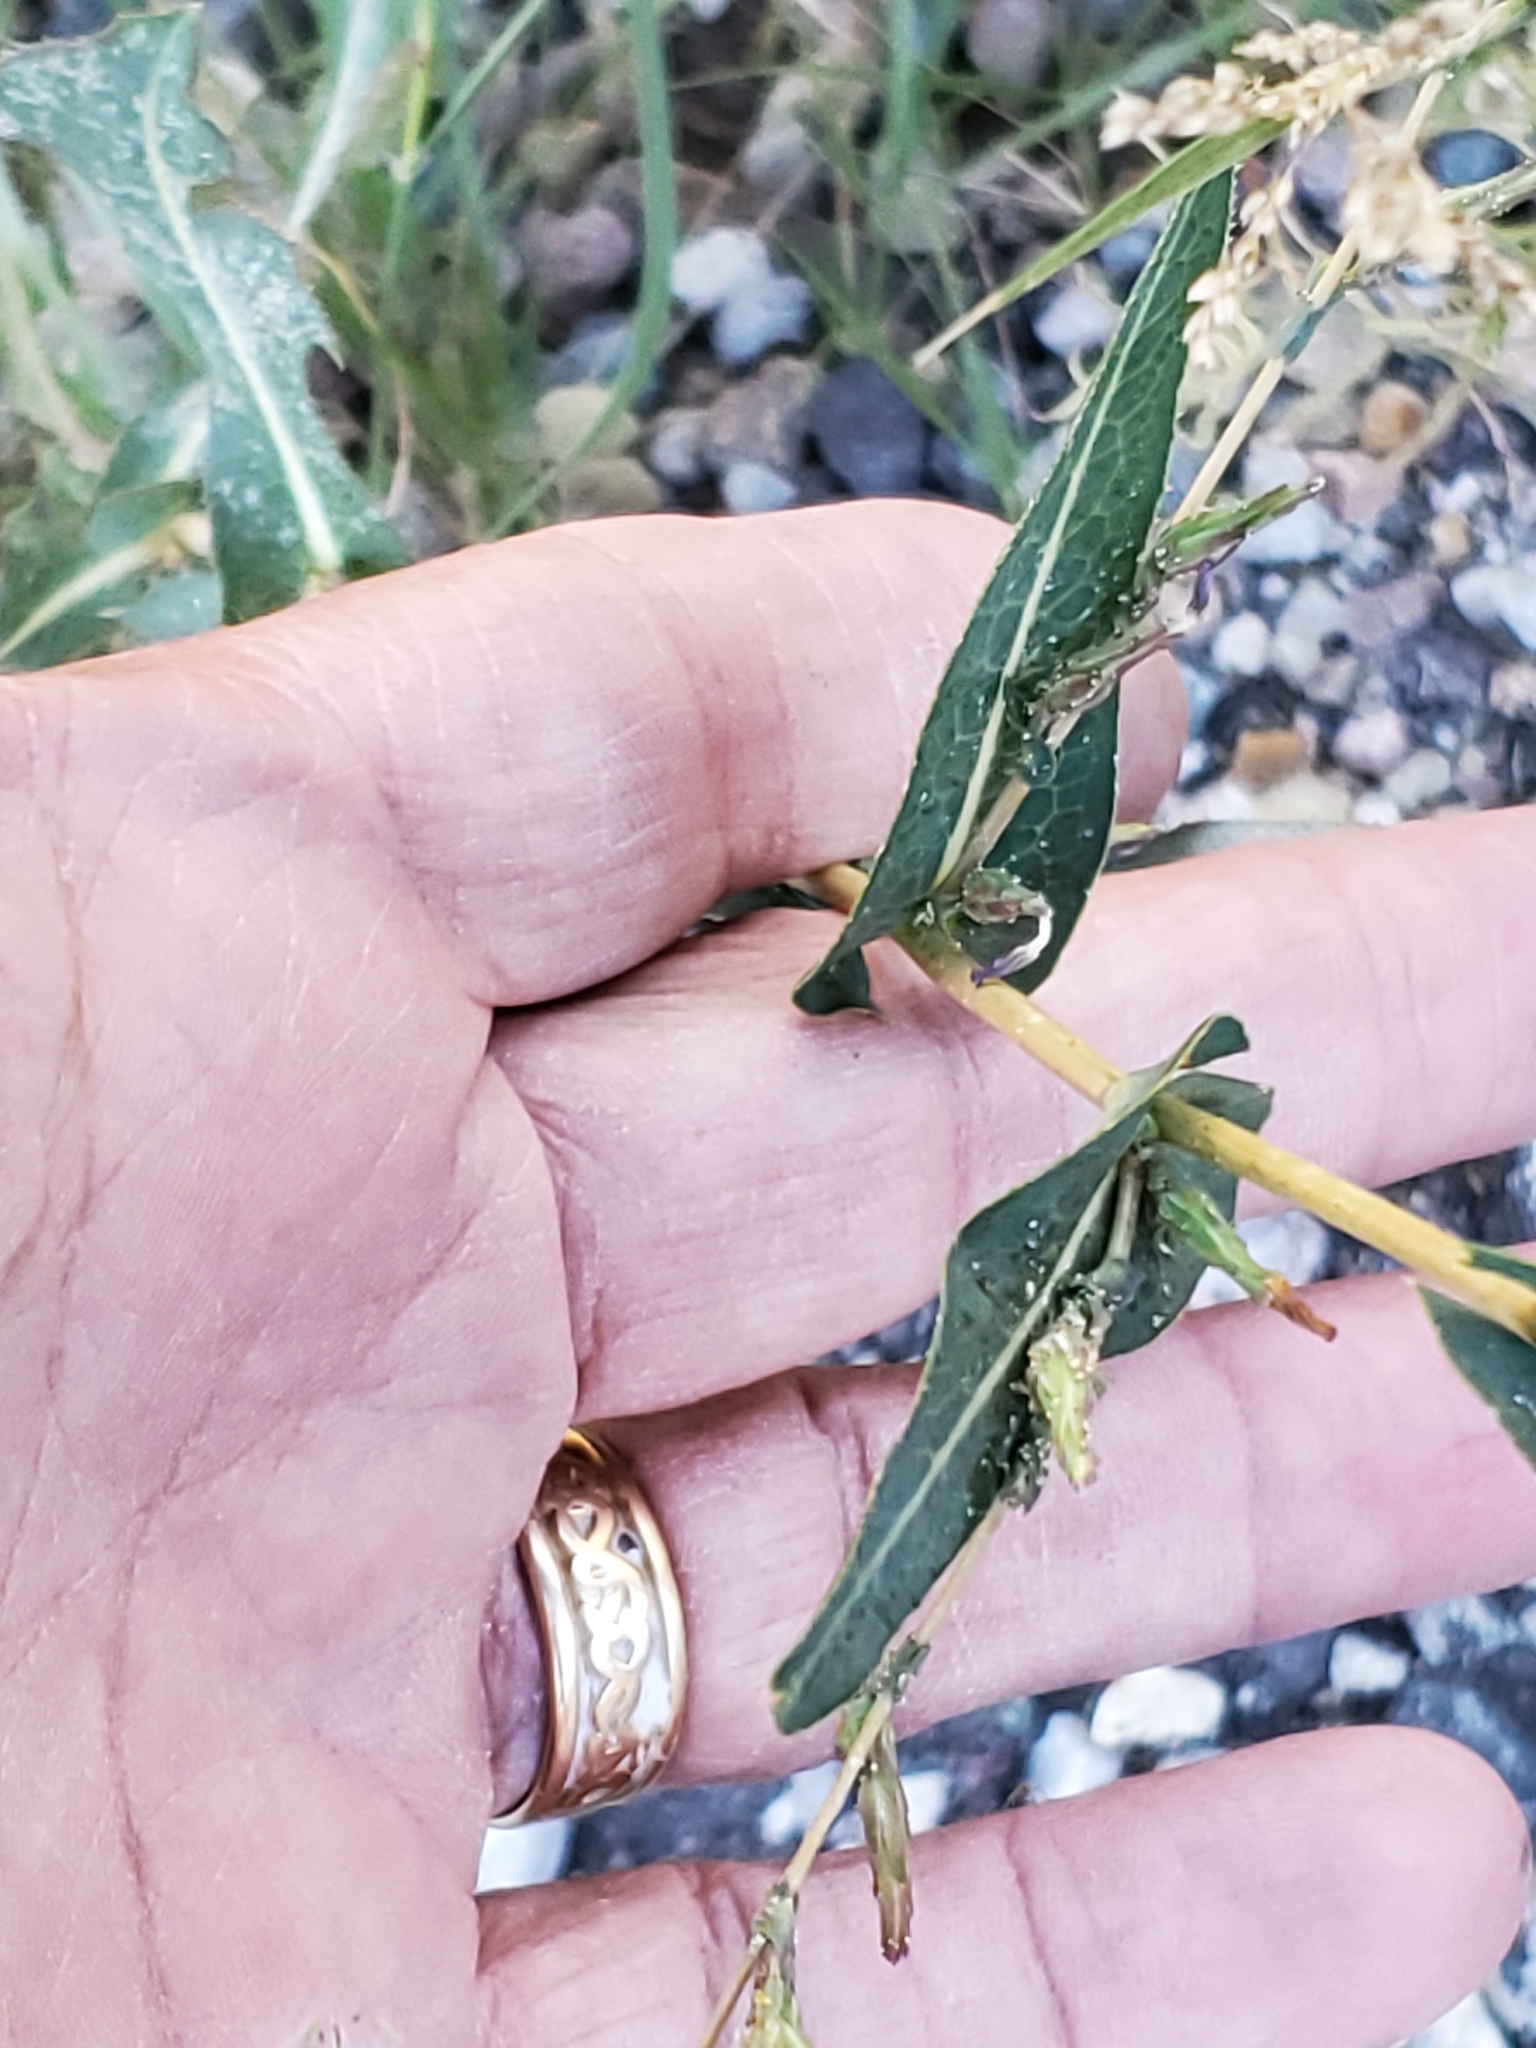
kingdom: Plantae
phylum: Tracheophyta
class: Magnoliopsida
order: Asterales
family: Asteraceae
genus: Lactuca
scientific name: Lactuca serriola
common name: Prickly lettuce
